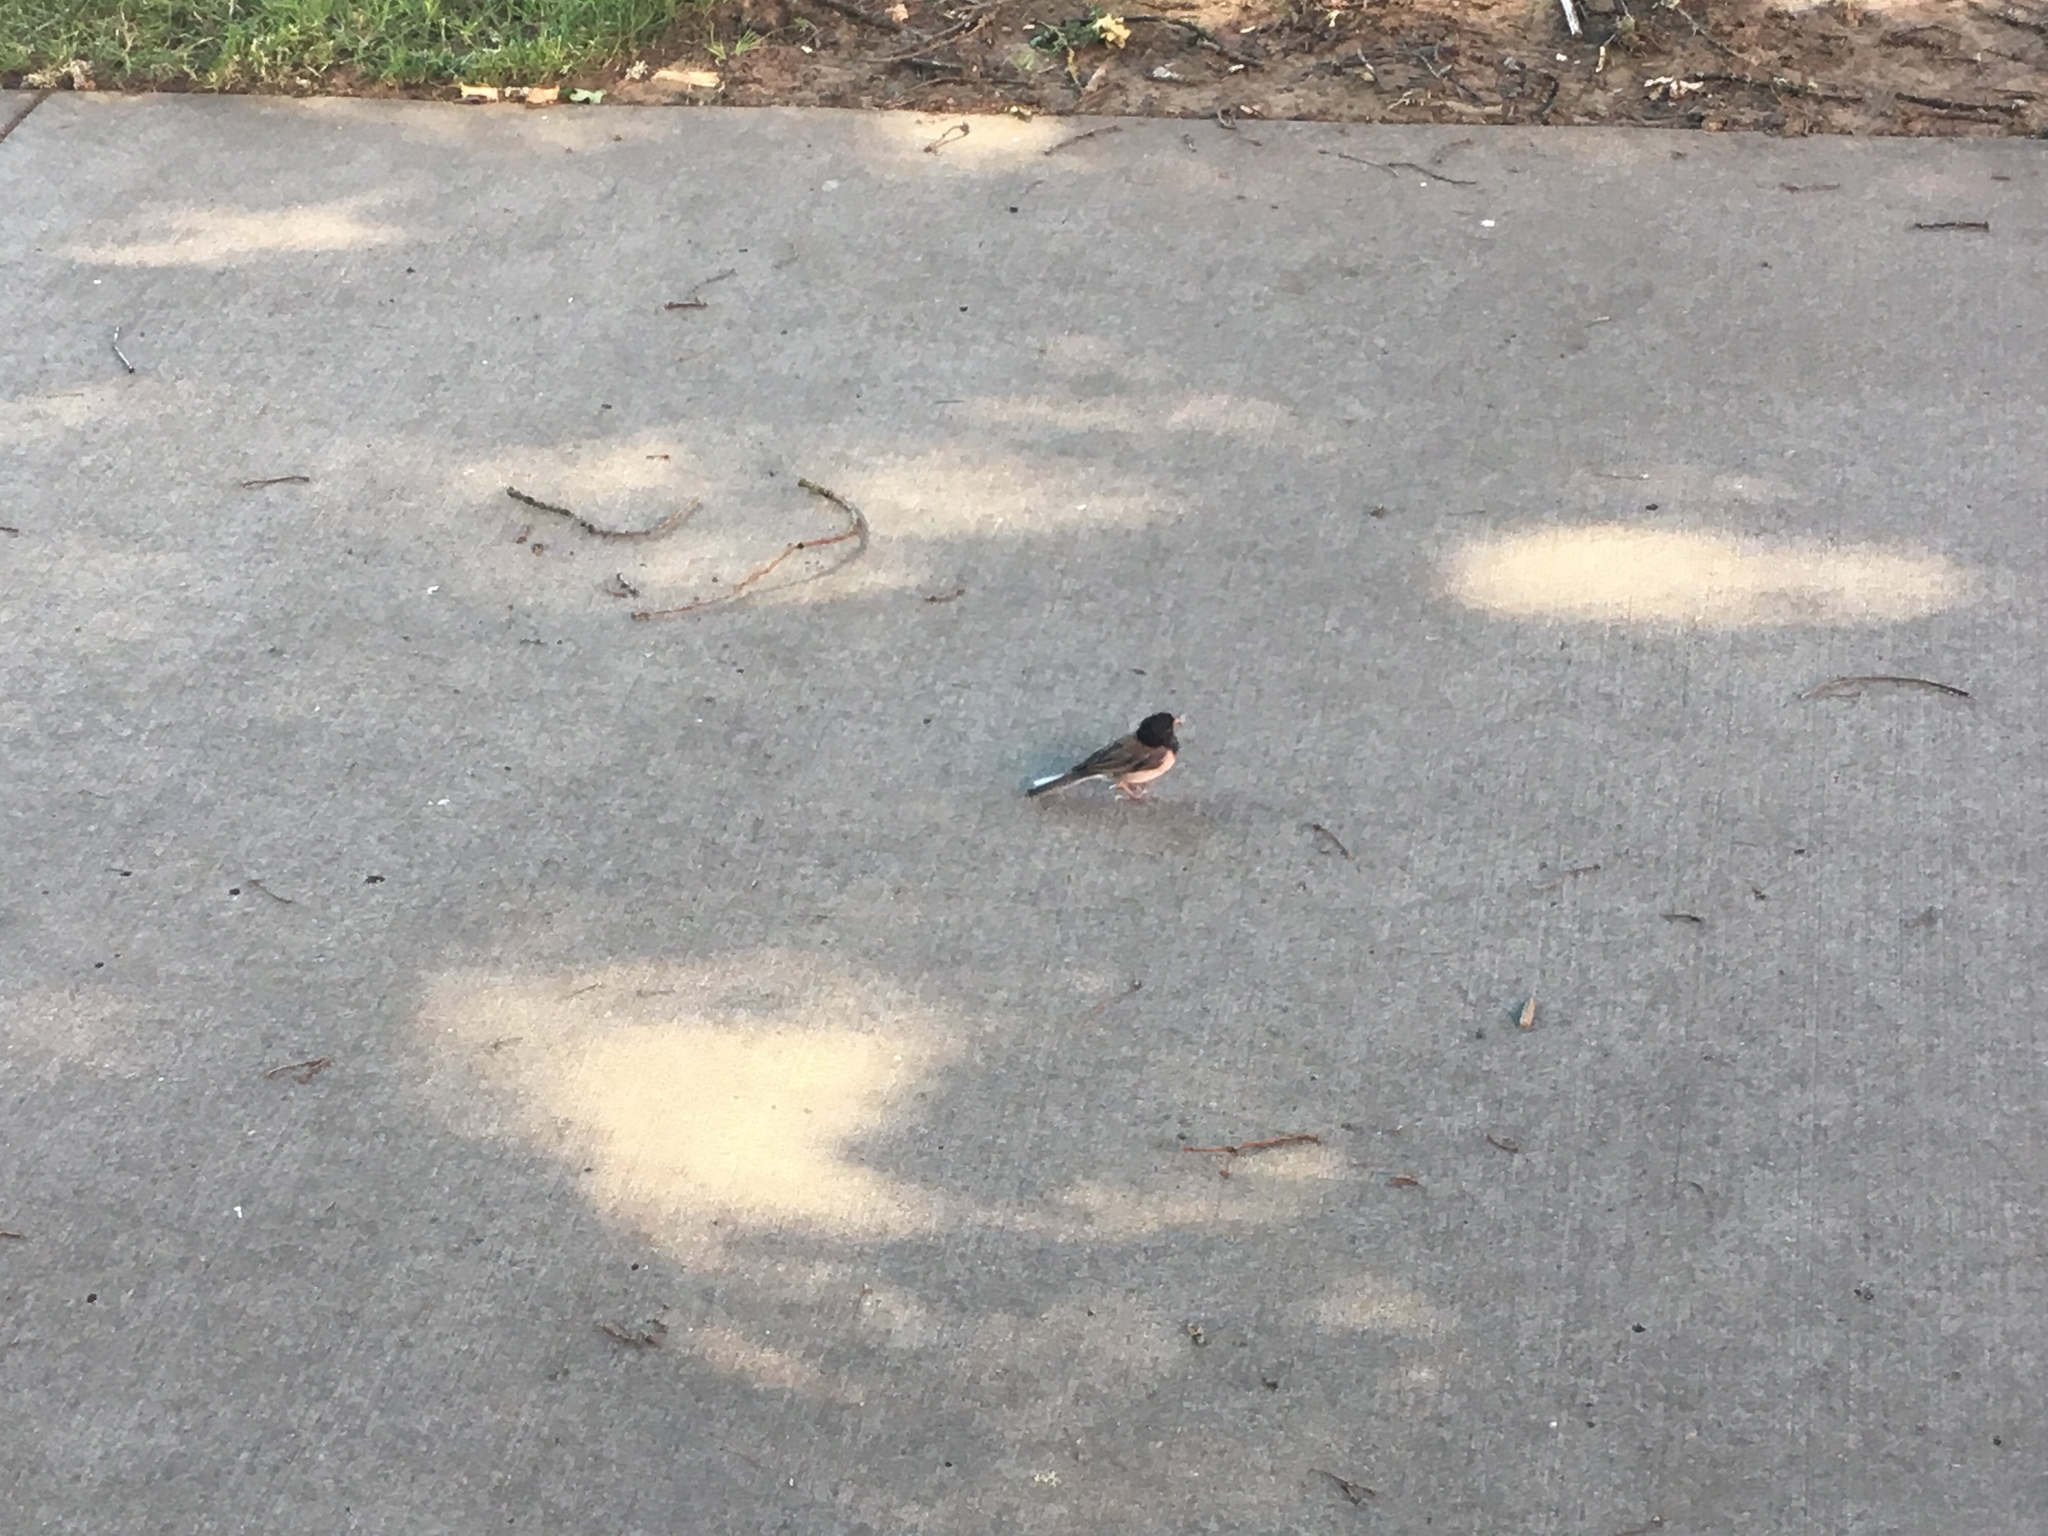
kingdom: Animalia
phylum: Chordata
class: Aves
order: Passeriformes
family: Passerellidae
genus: Junco
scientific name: Junco hyemalis
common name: Dark-eyed junco
